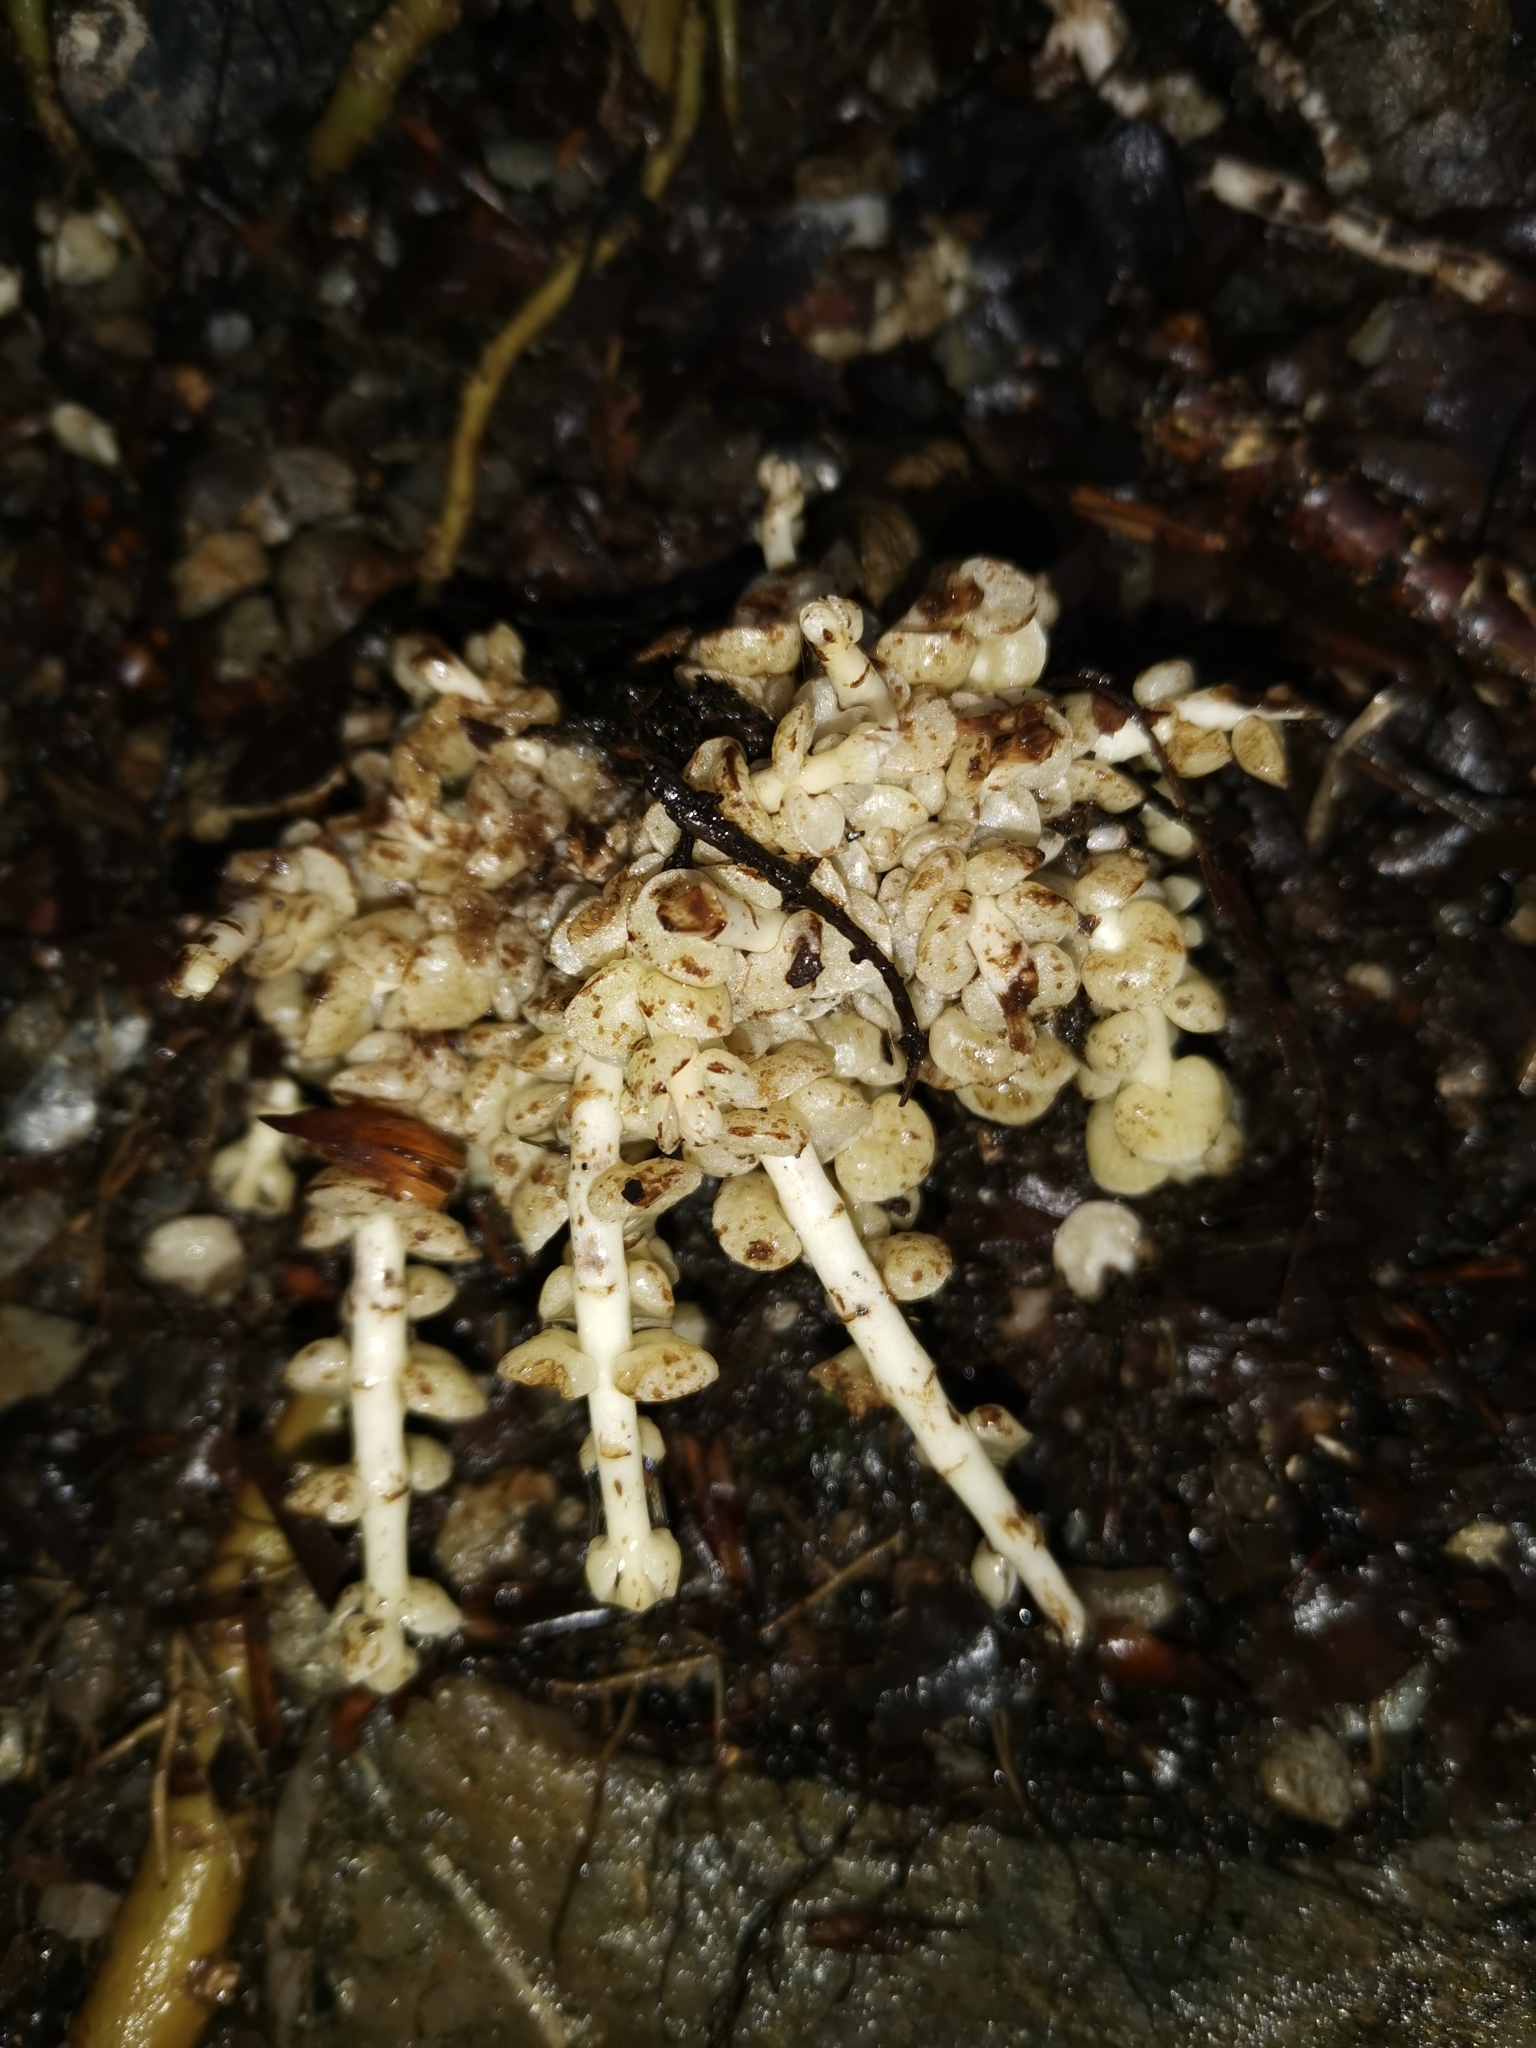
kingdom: Plantae
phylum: Tracheophyta
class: Magnoliopsida
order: Lamiales
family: Orobanchaceae
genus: Lathraea
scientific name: Lathraea squamaria
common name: Toothwort
